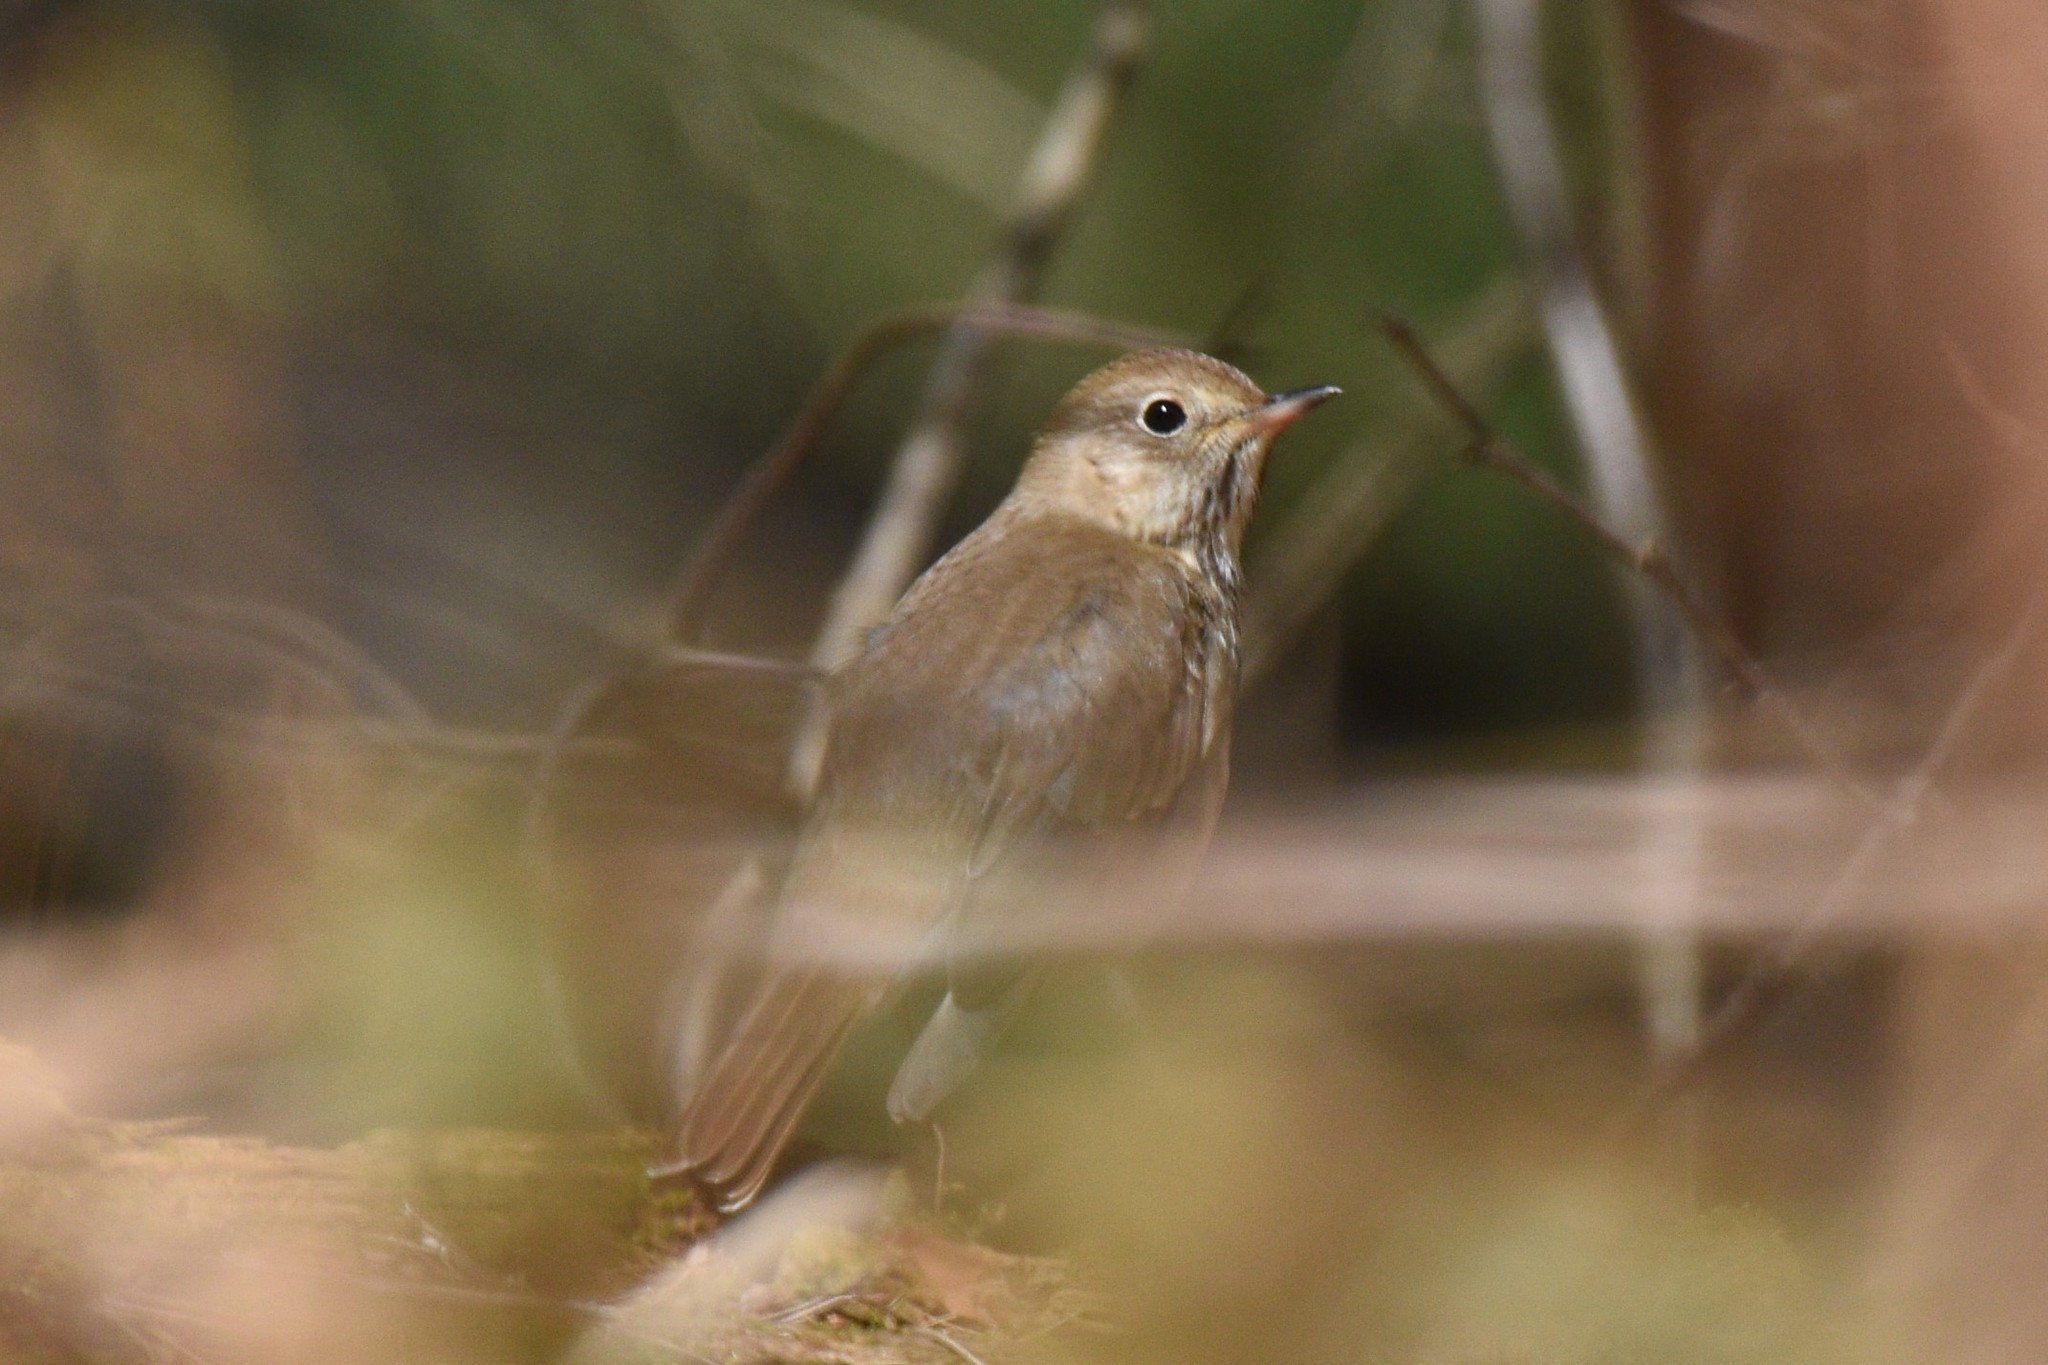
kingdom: Animalia
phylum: Chordata
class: Aves
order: Passeriformes
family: Turdidae
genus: Catharus
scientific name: Catharus guttatus
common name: Hermit thrush
